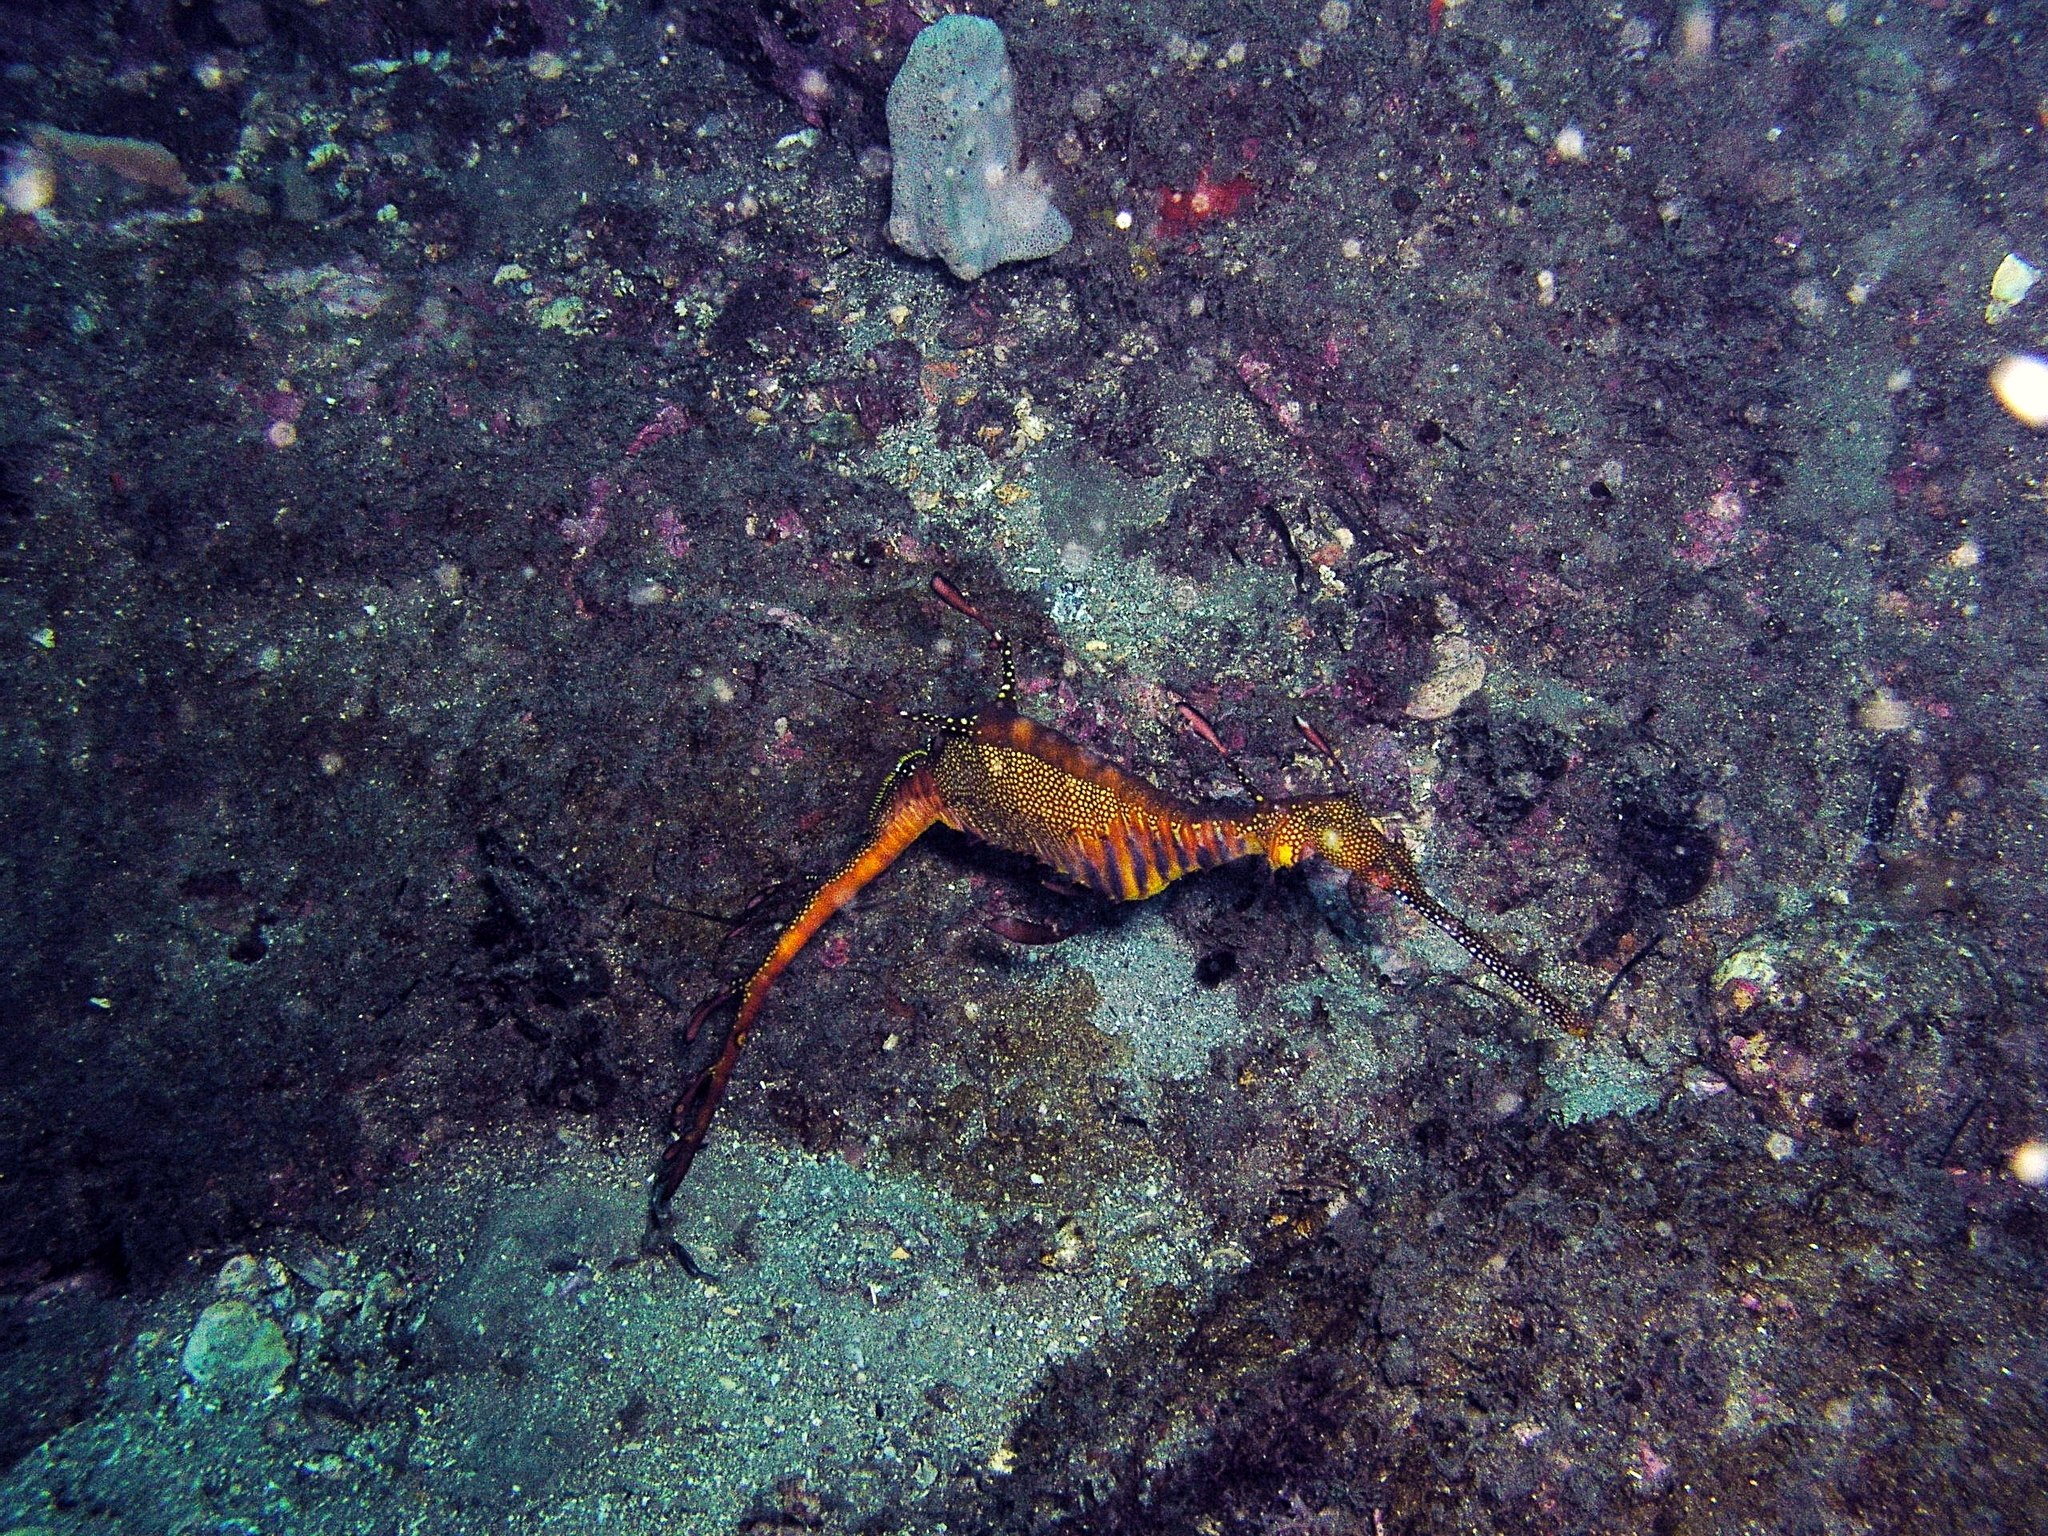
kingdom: Animalia
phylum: Chordata
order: Syngnathiformes
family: Syngnathidae
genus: Phyllopteryx
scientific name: Phyllopteryx taeniolatus
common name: Common seadragon
